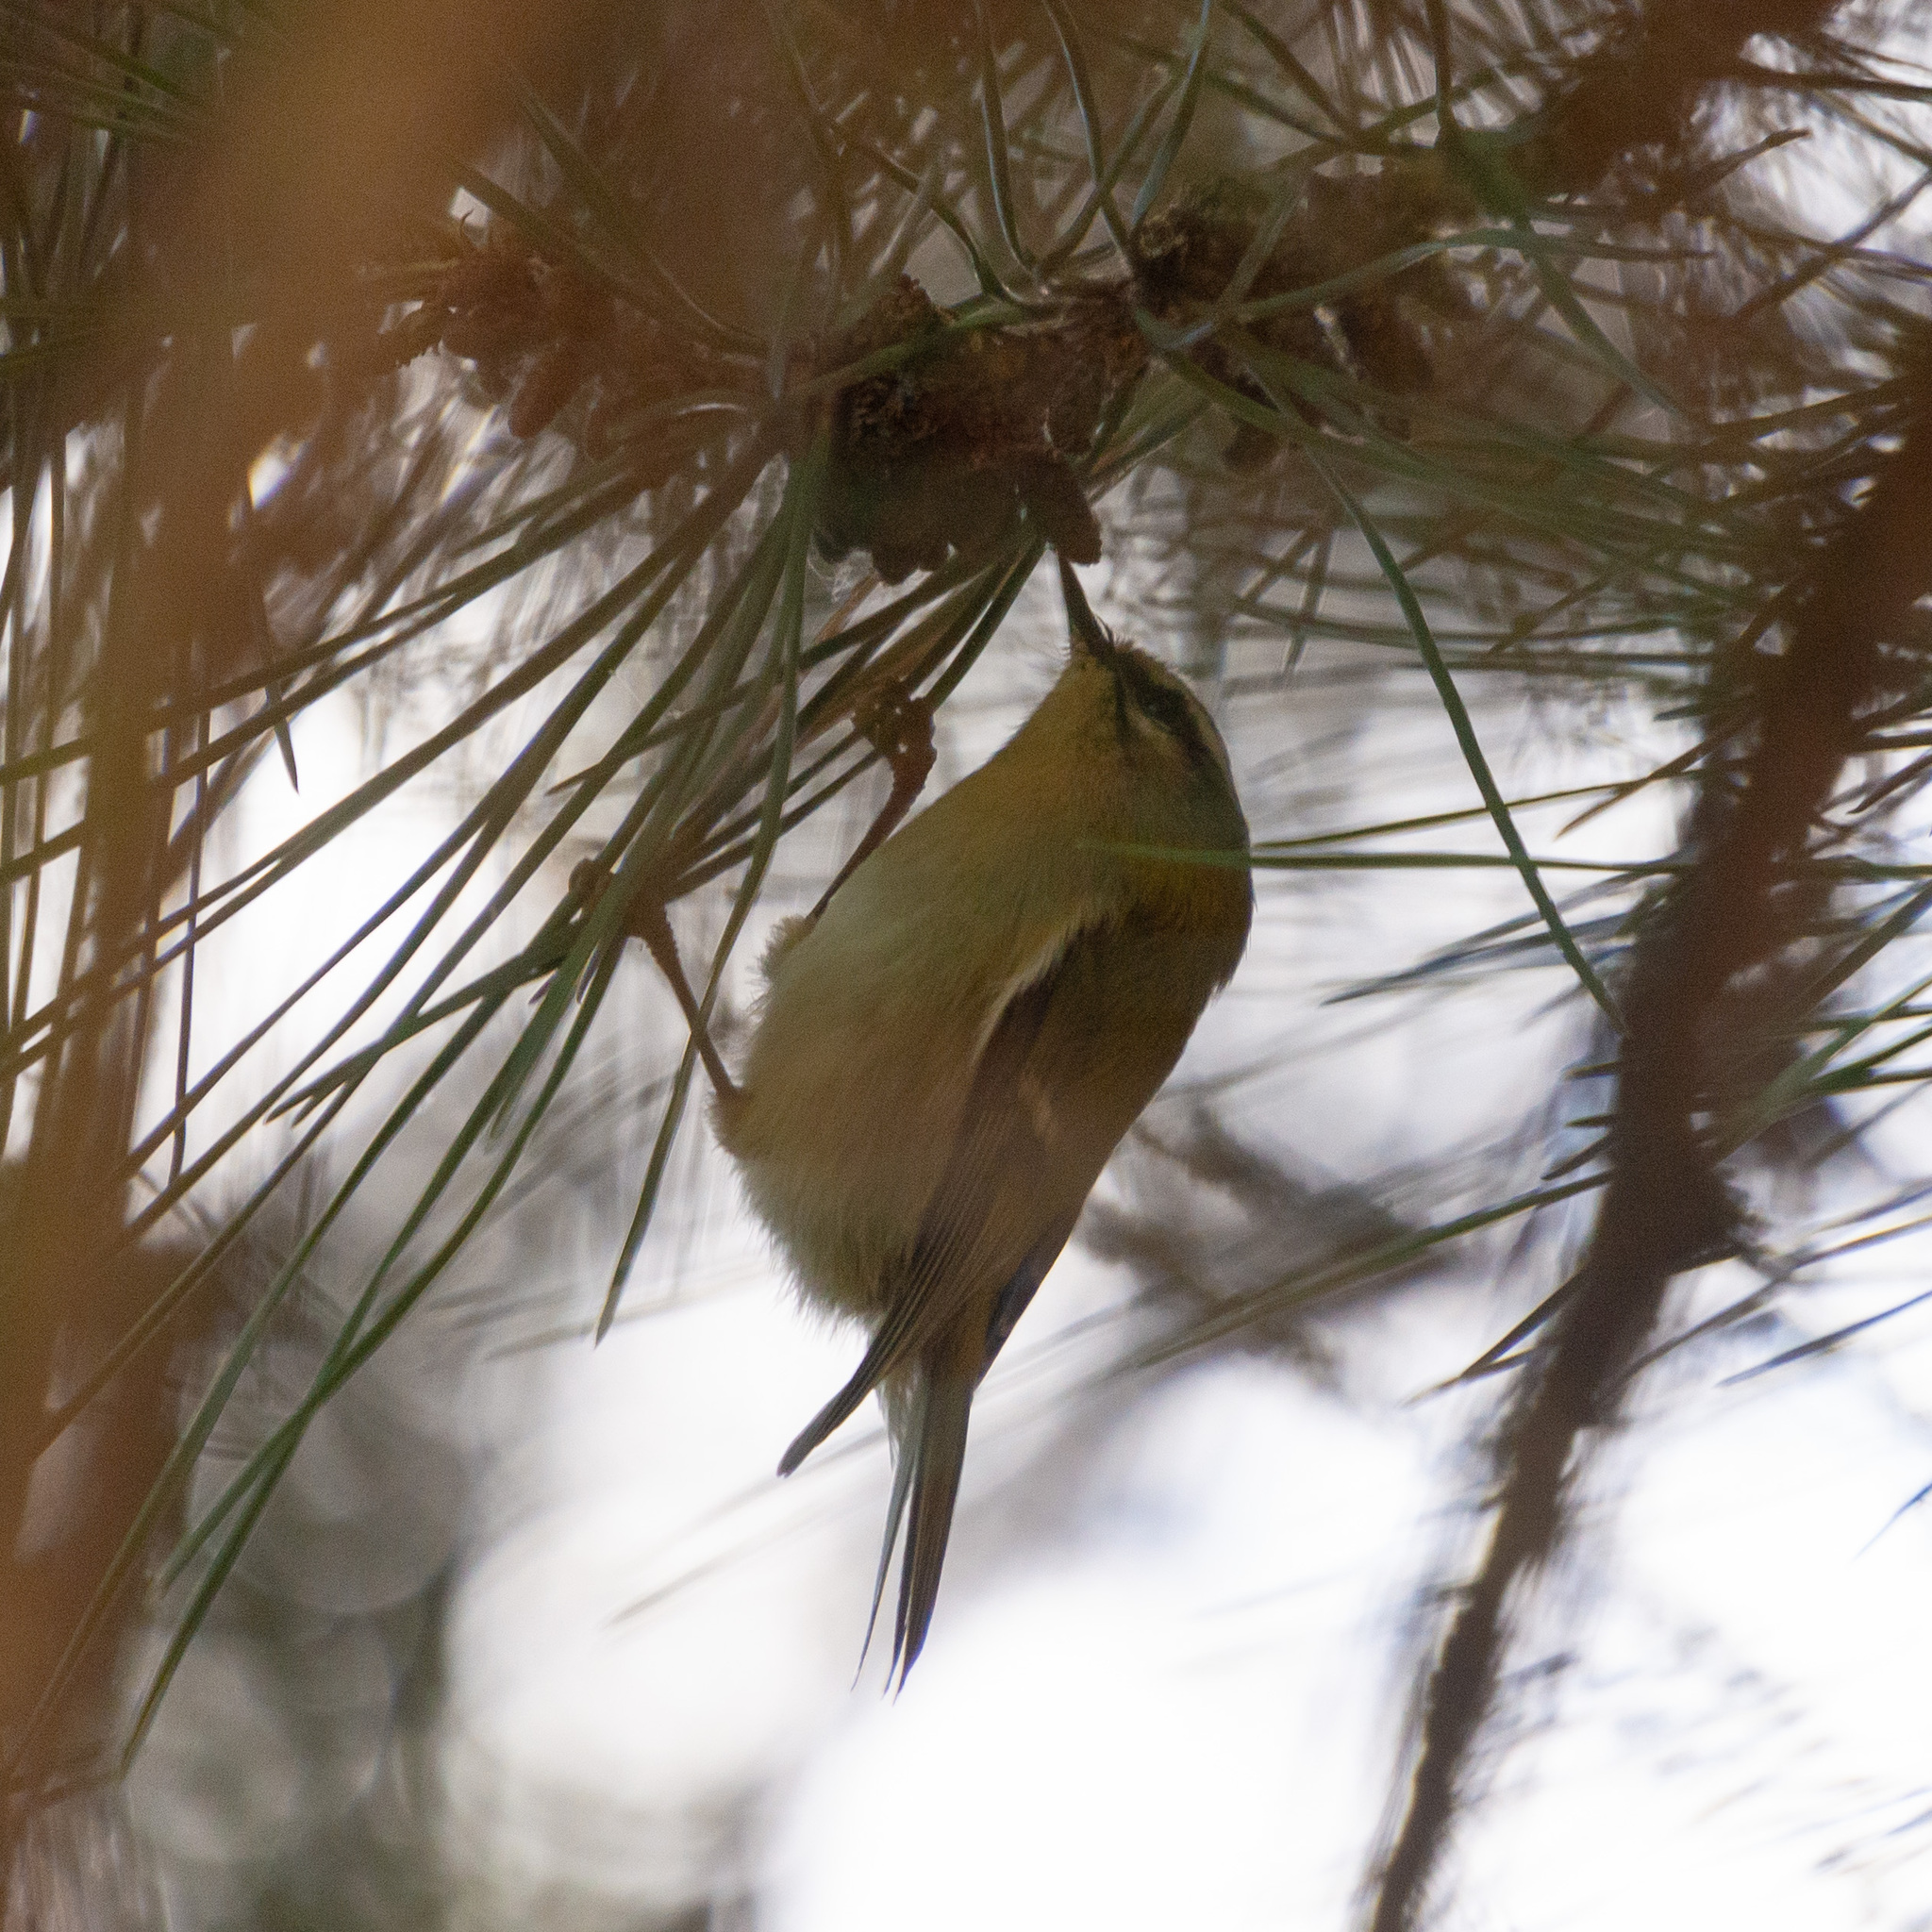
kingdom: Animalia
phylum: Chordata
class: Aves
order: Passeriformes
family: Regulidae
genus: Regulus
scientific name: Regulus ignicapilla
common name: Firecrest
